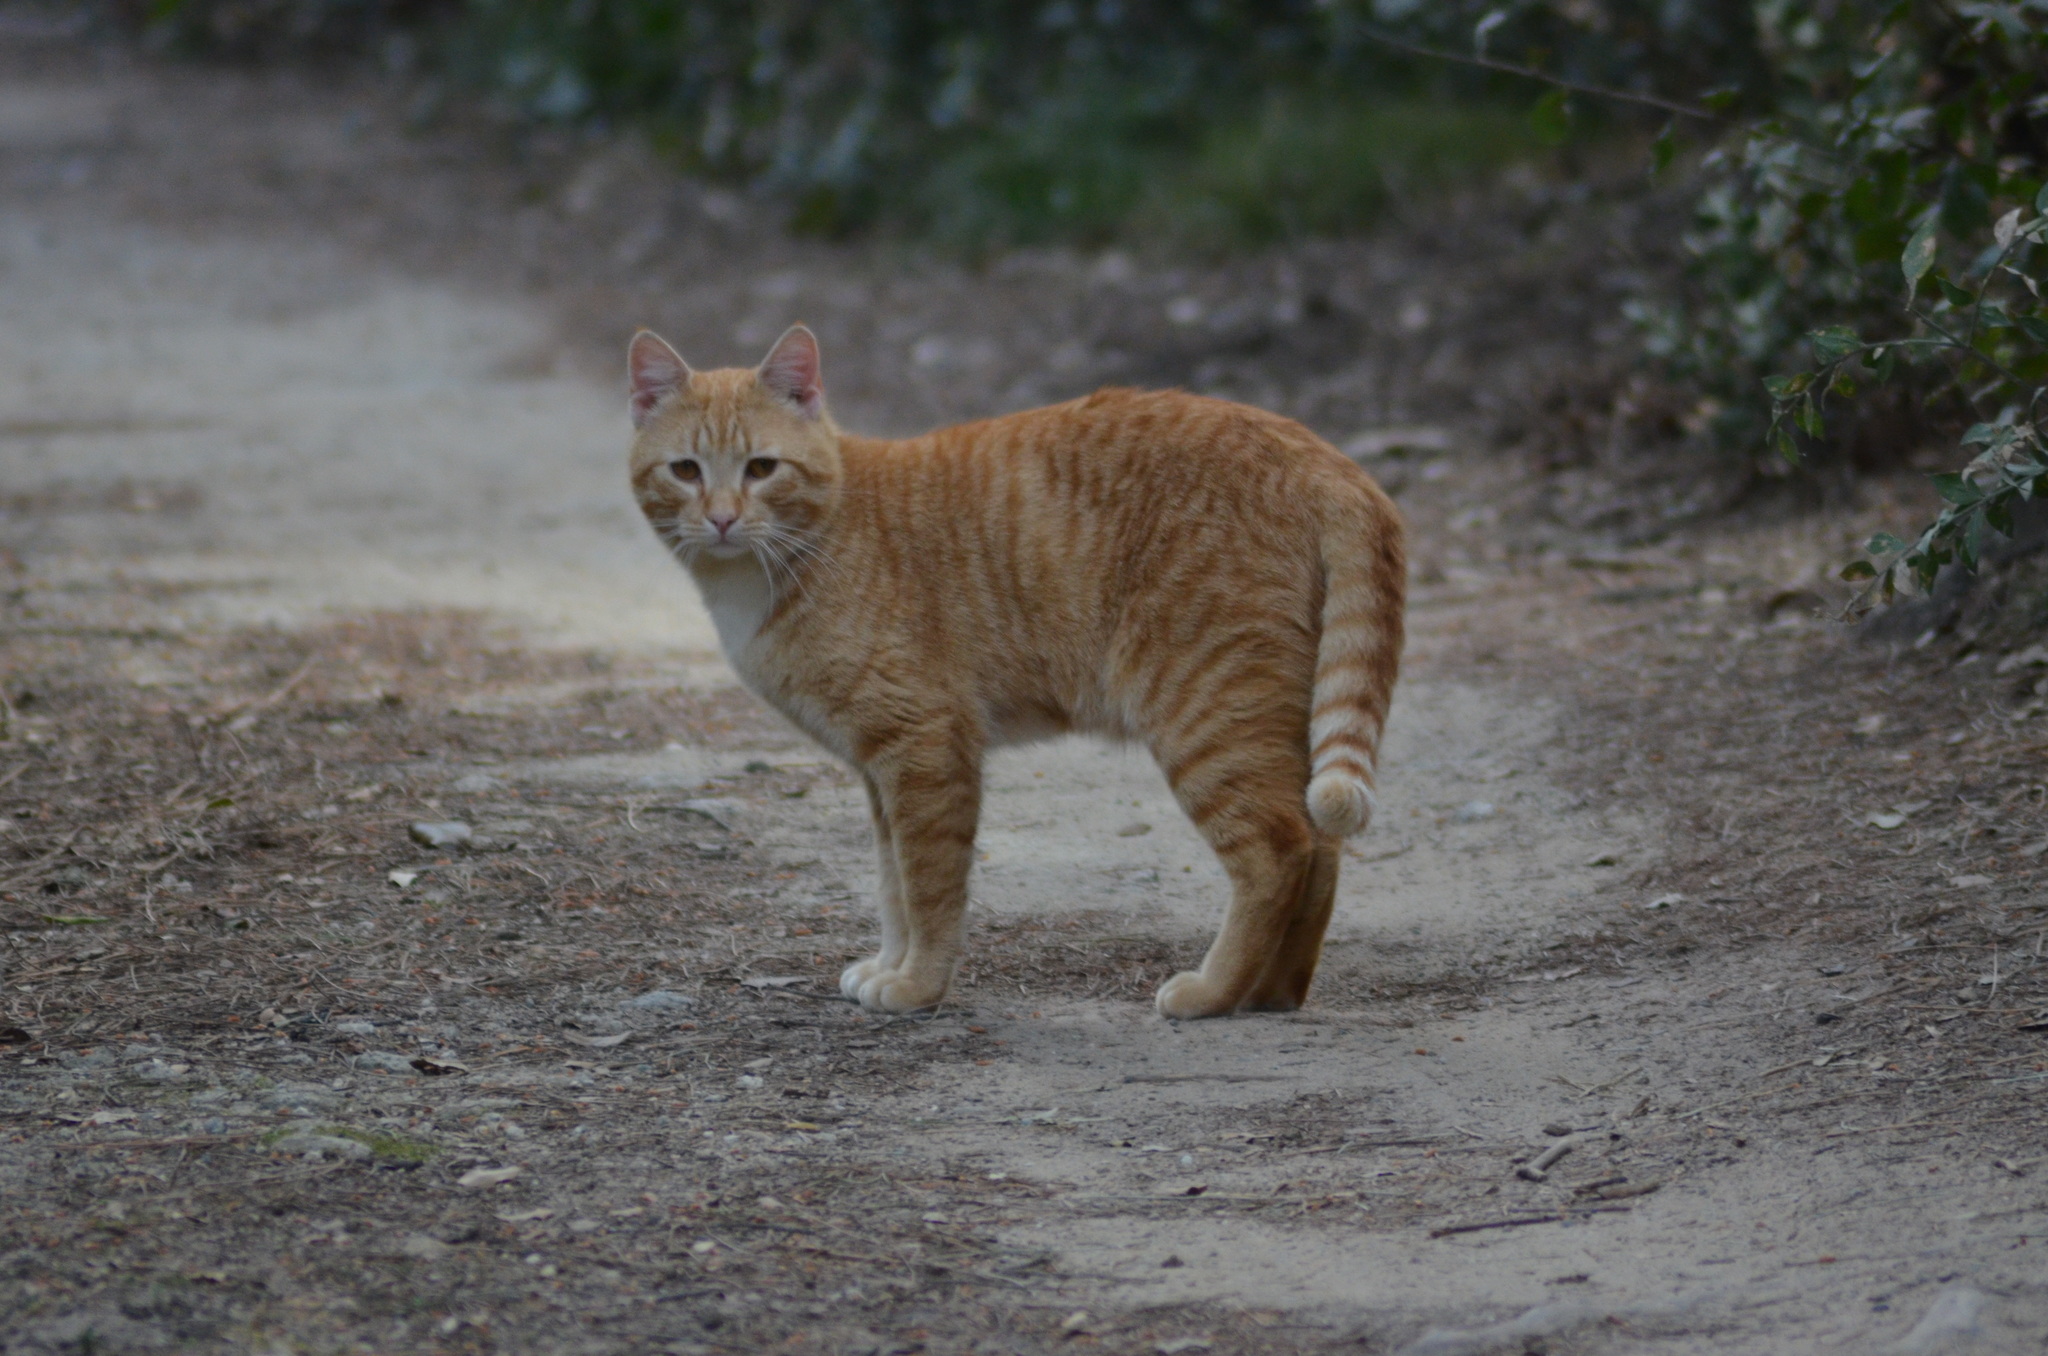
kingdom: Animalia
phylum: Chordata
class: Mammalia
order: Carnivora
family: Felidae
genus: Felis
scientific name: Felis catus
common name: Domestic cat
